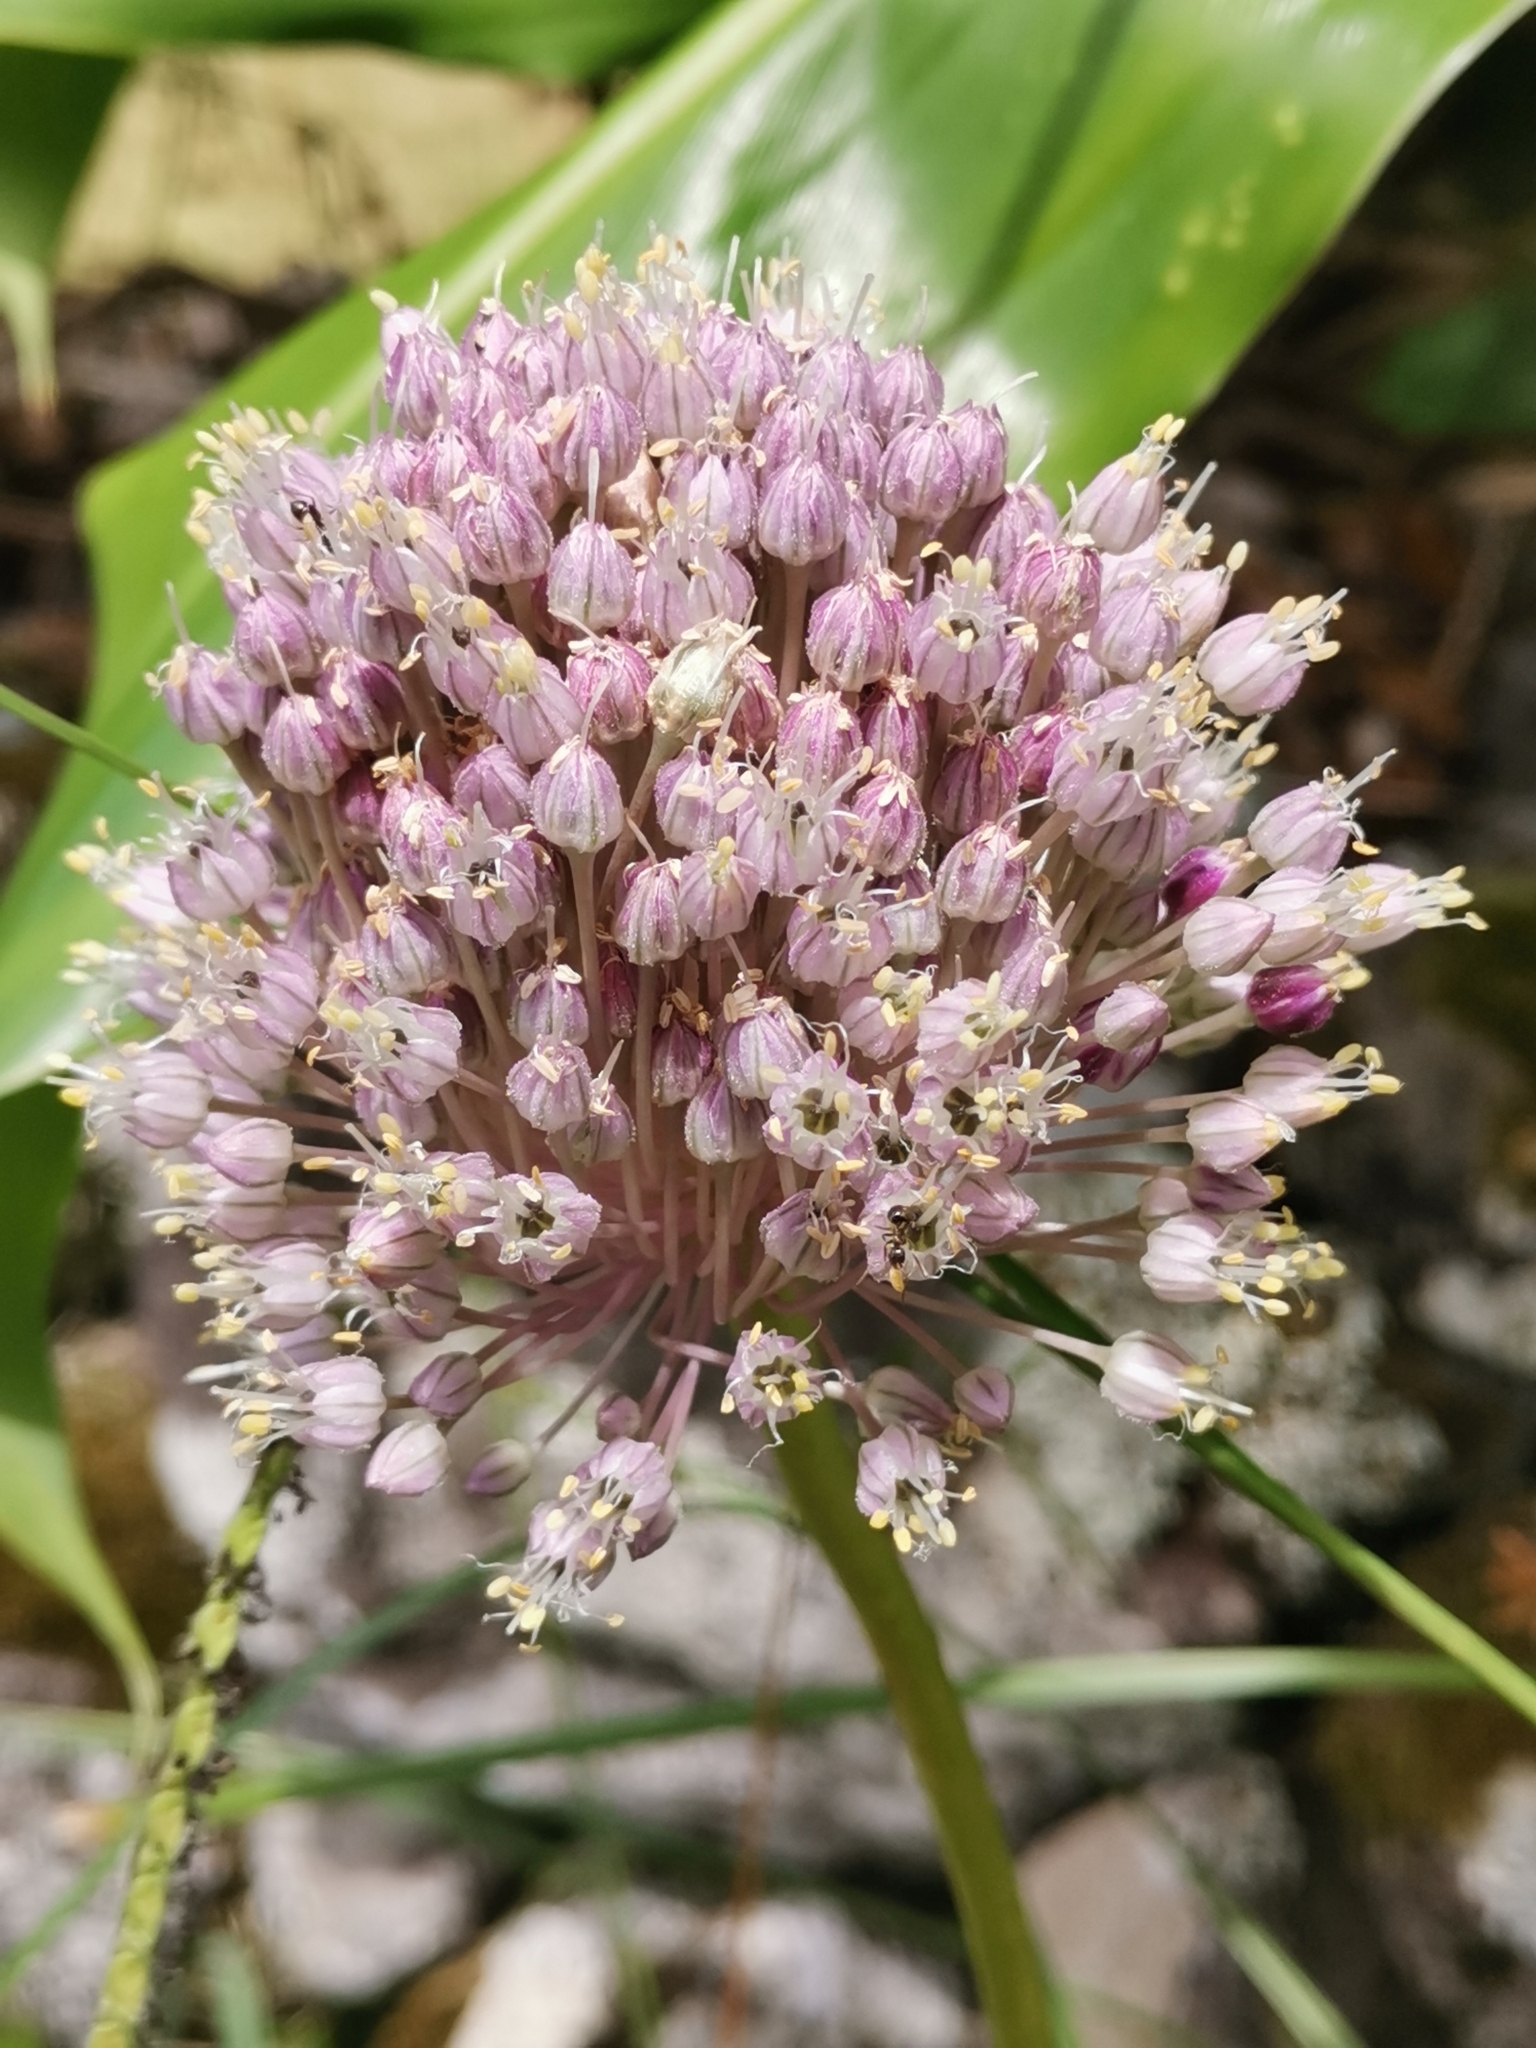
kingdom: Plantae
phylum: Tracheophyta
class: Liliopsida
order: Asparagales
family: Amaryllidaceae
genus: Allium
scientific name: Allium ampeloprasum
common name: Wild leek
